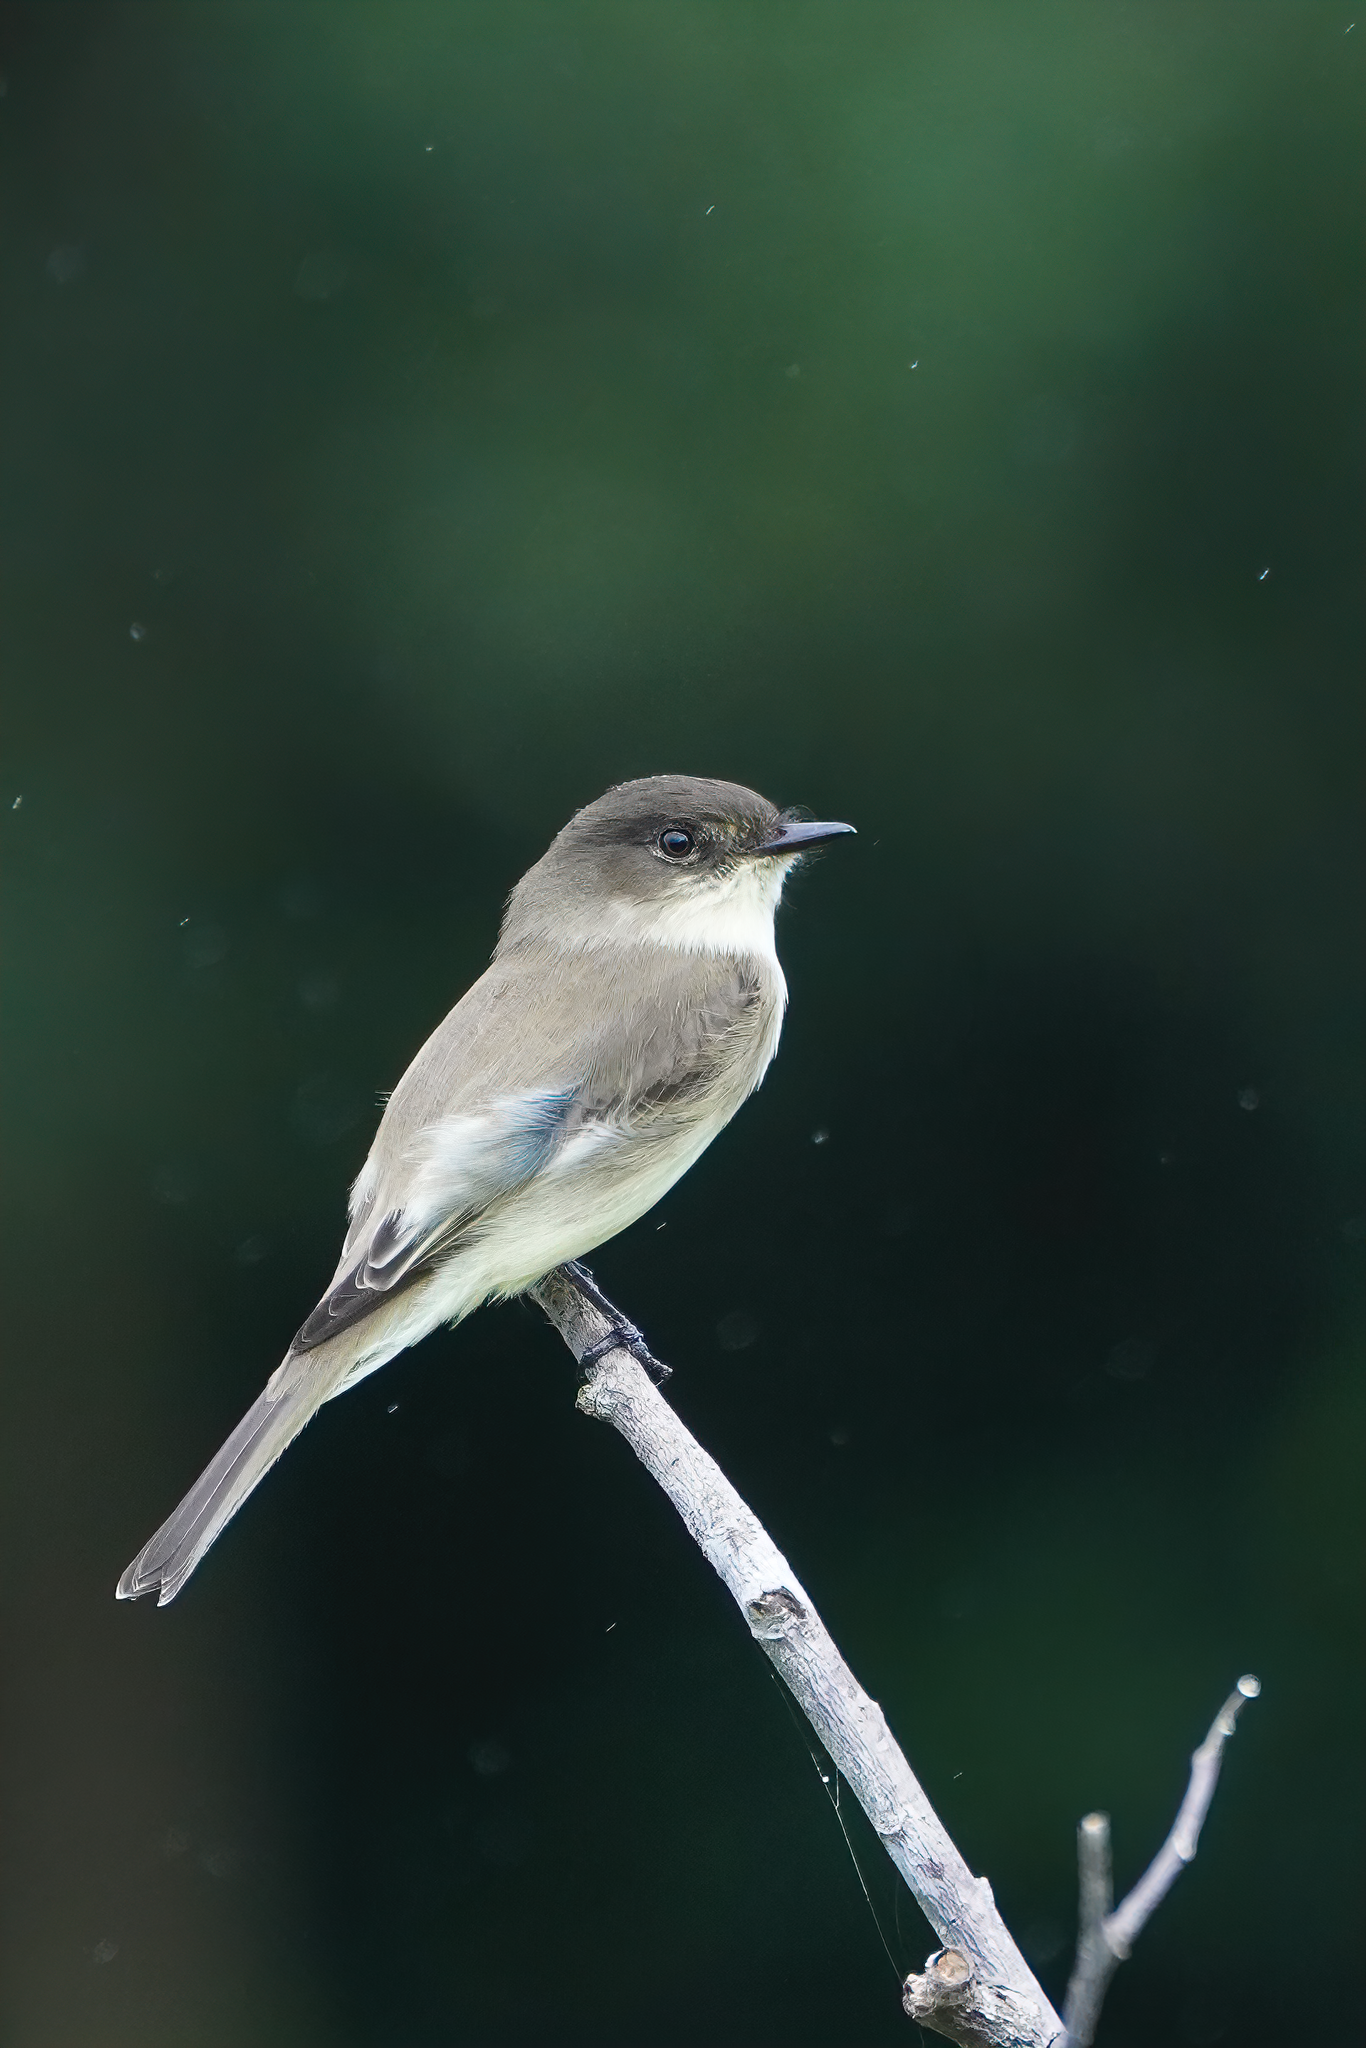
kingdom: Animalia
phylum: Chordata
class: Aves
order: Passeriformes
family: Tyrannidae
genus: Sayornis
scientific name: Sayornis phoebe
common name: Eastern phoebe
